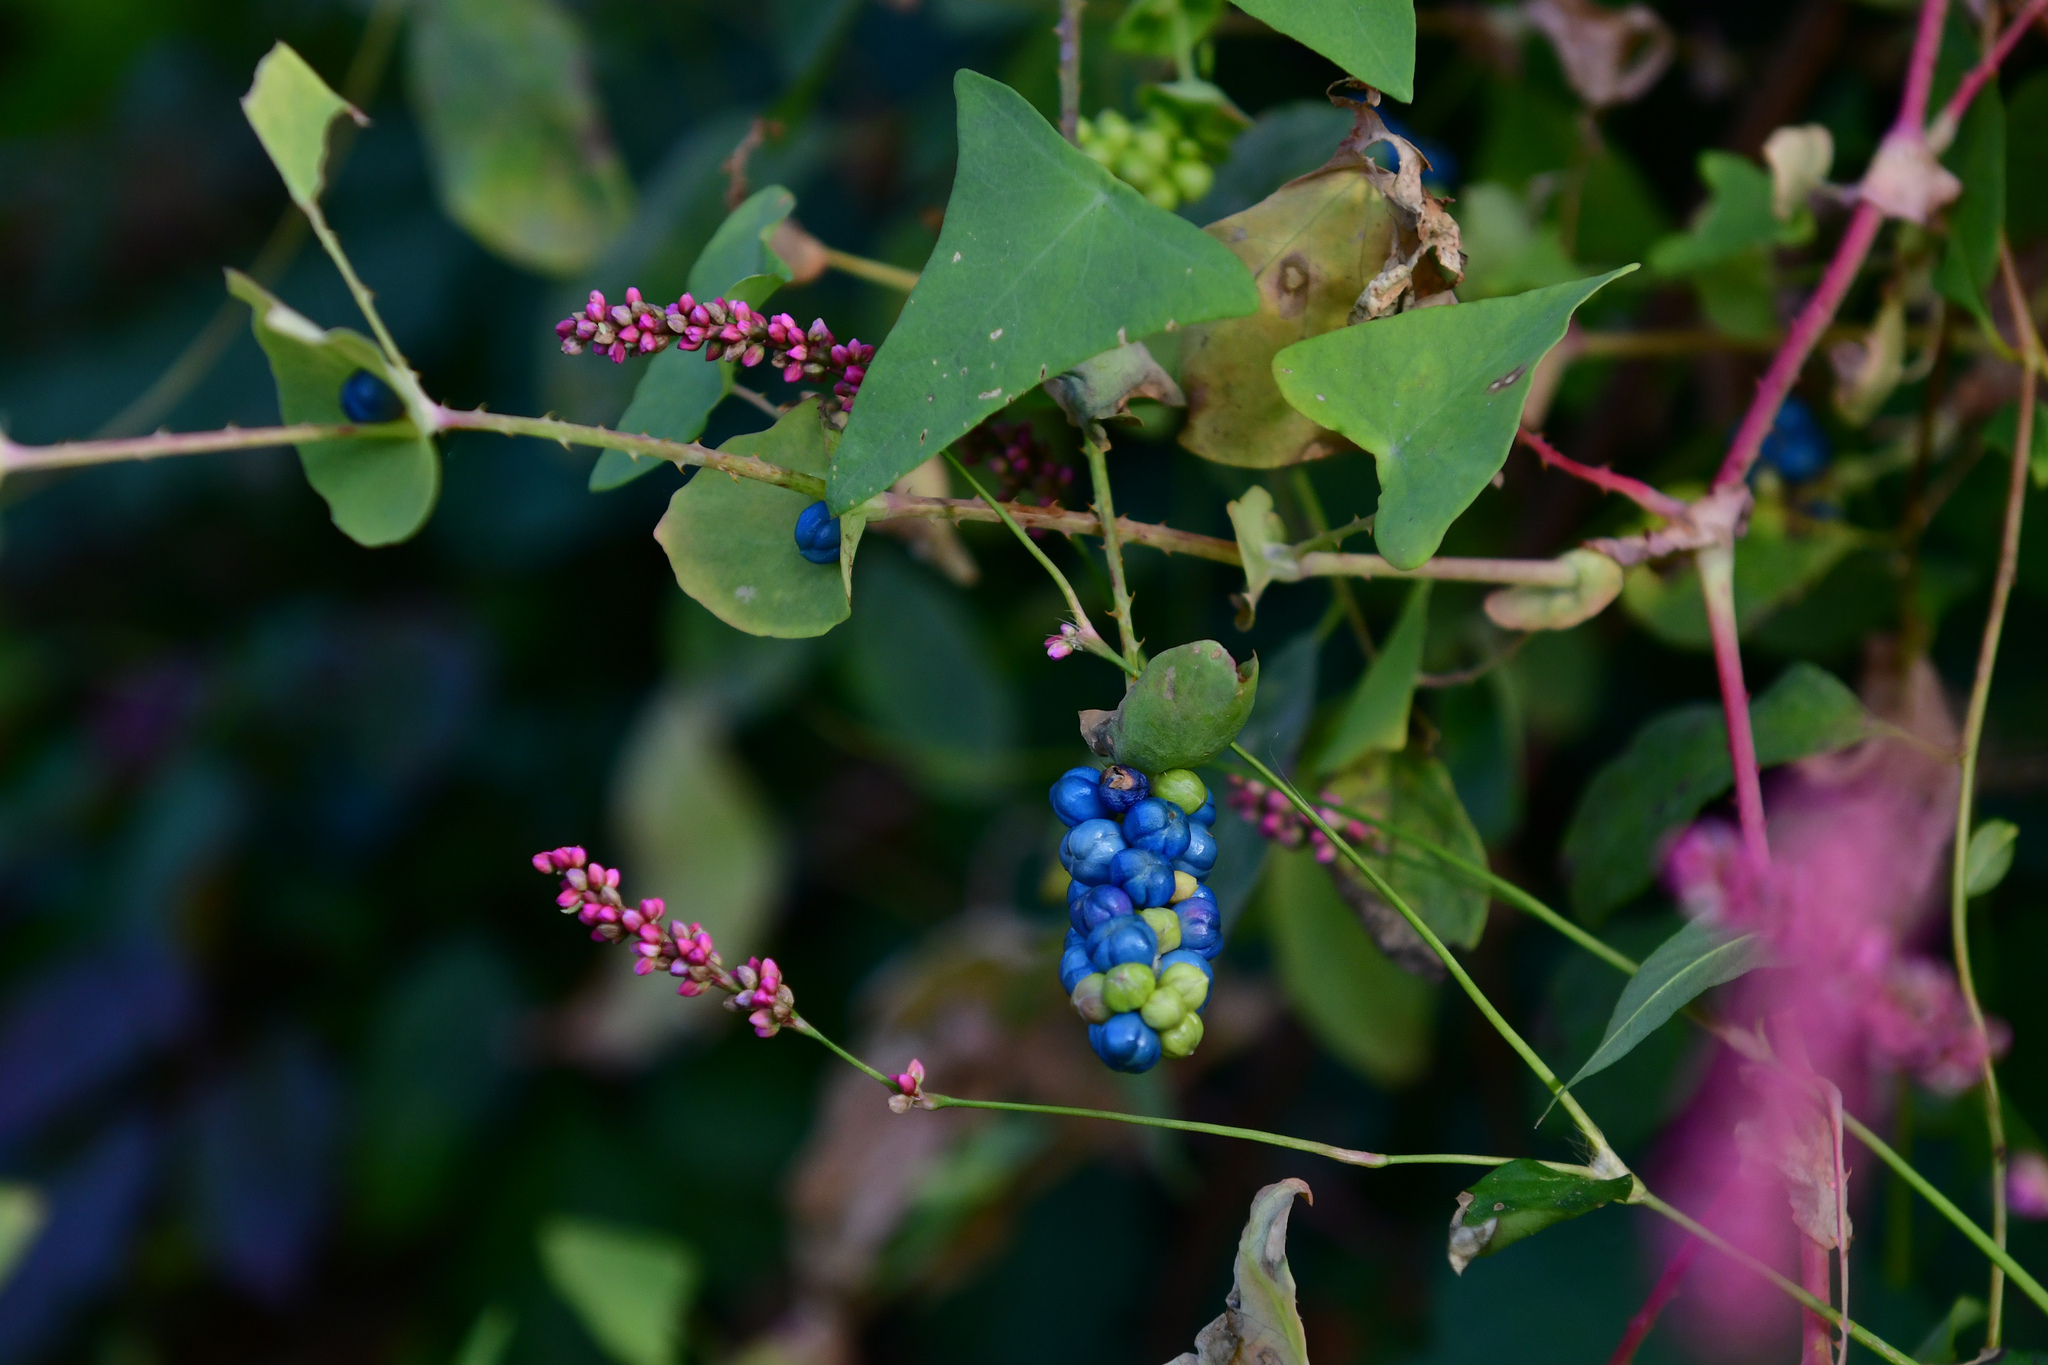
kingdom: Plantae
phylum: Tracheophyta
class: Magnoliopsida
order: Caryophyllales
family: Polygonaceae
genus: Persicaria
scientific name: Persicaria perfoliata
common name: Asiatic tearthumb
